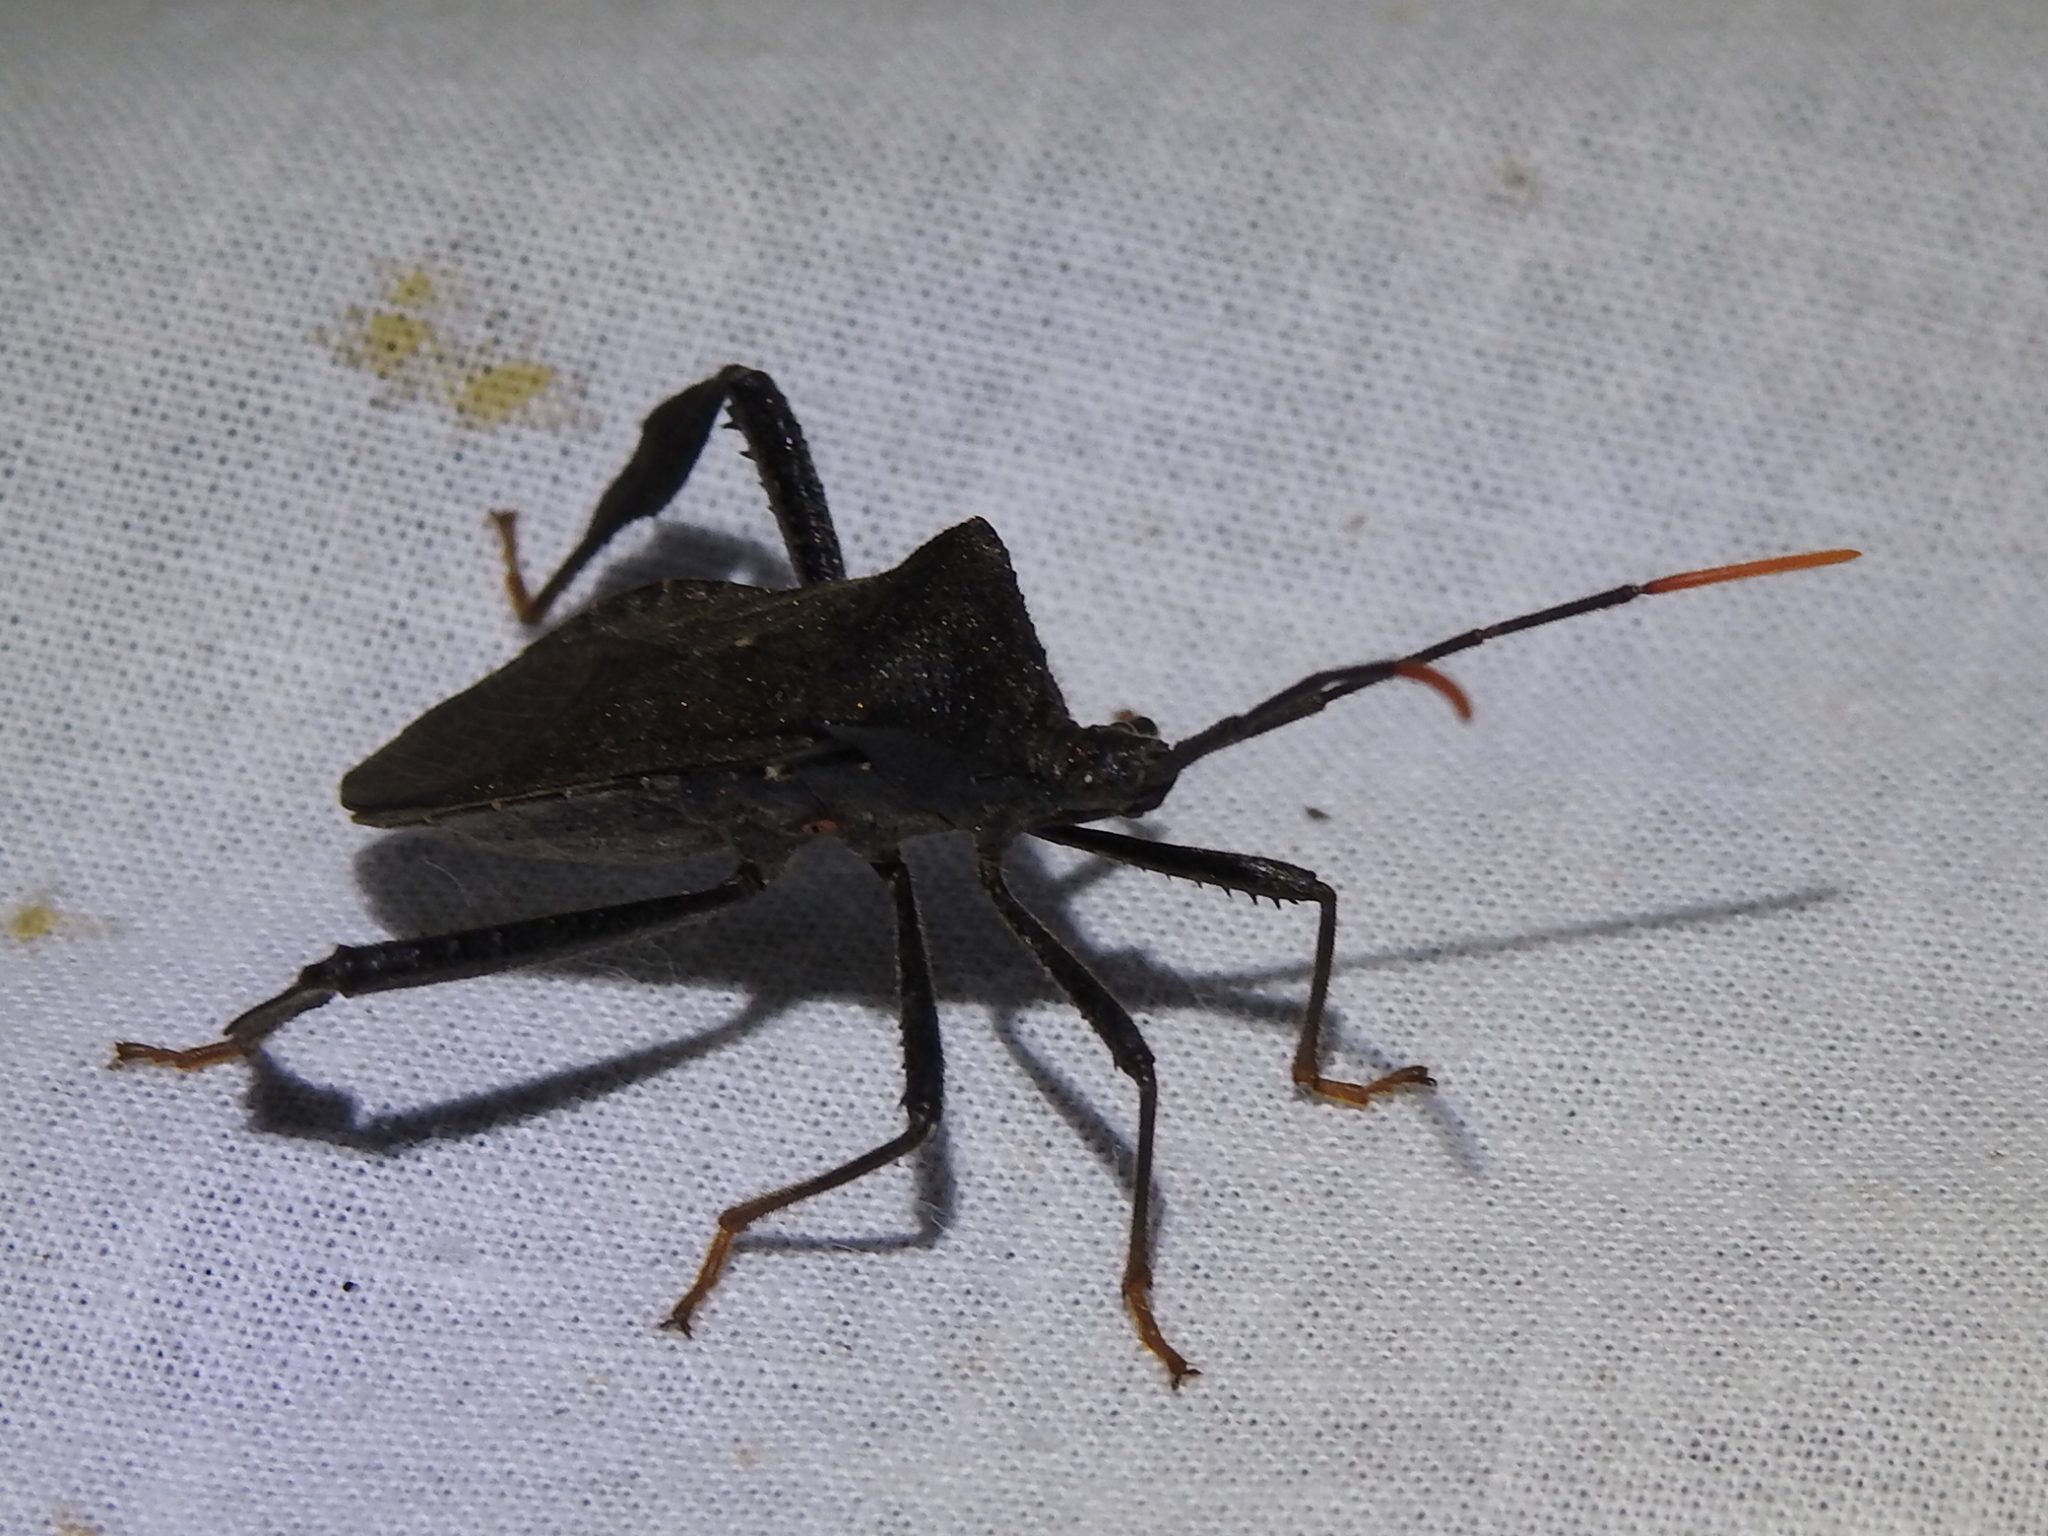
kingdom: Animalia
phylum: Arthropoda
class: Insecta
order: Hemiptera
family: Coreidae
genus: Acanthocephala
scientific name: Acanthocephala terminalis
